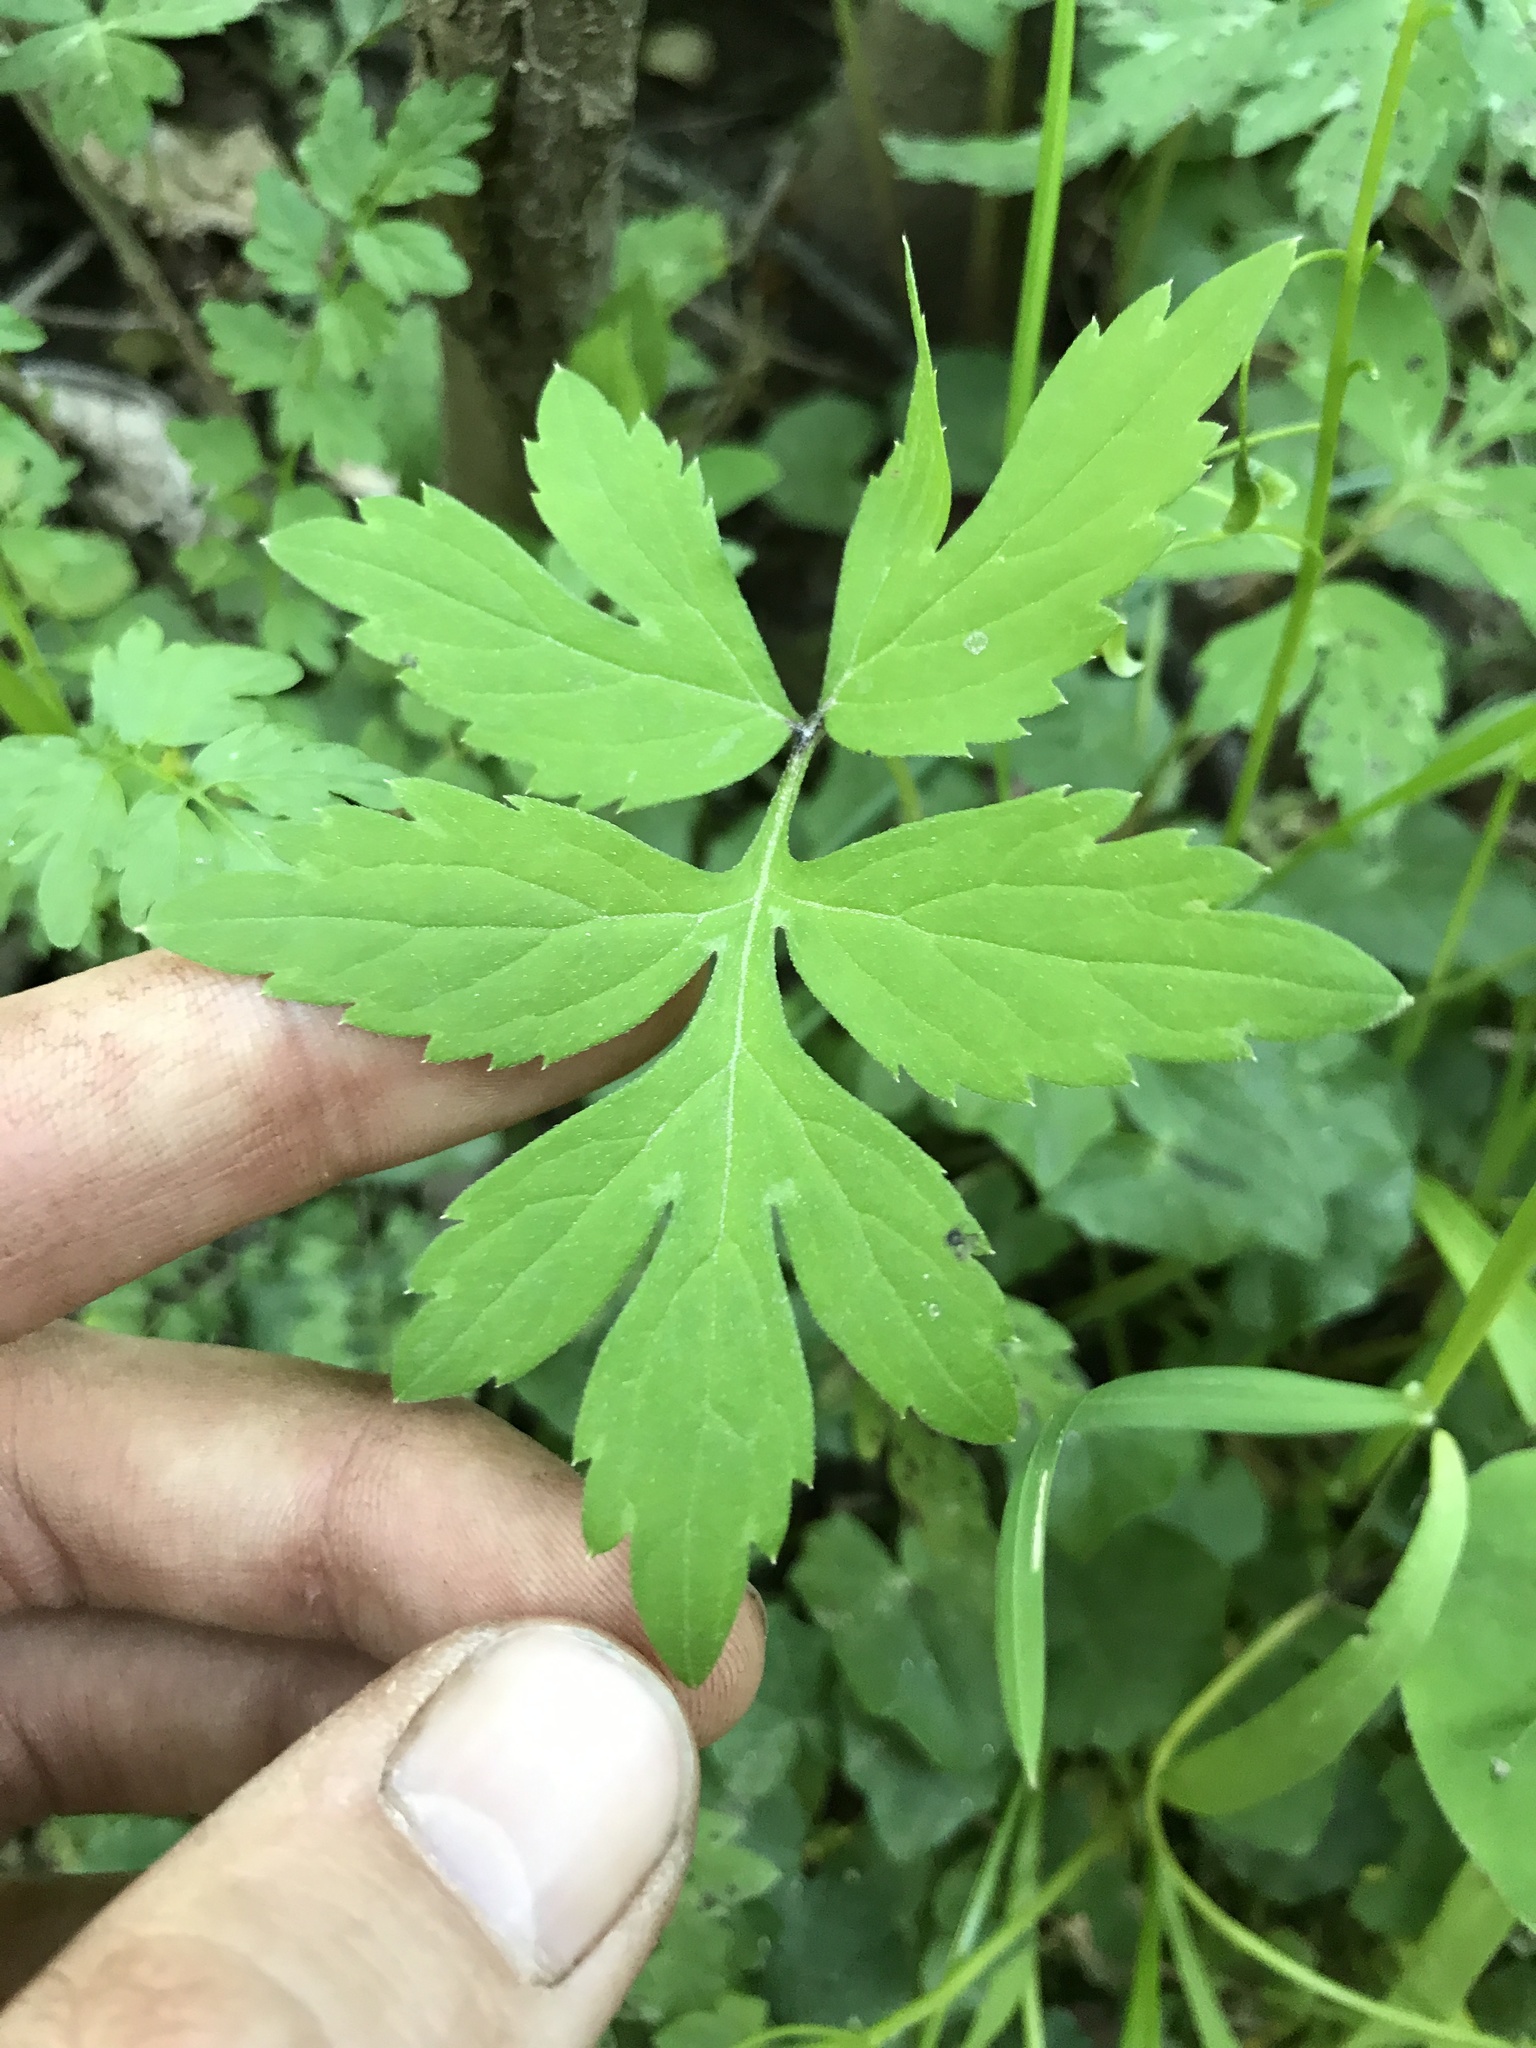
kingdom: Plantae
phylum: Tracheophyta
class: Magnoliopsida
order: Boraginales
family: Hydrophyllaceae
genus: Hydrophyllum
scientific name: Hydrophyllum virginianum
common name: Virginia waterleaf
